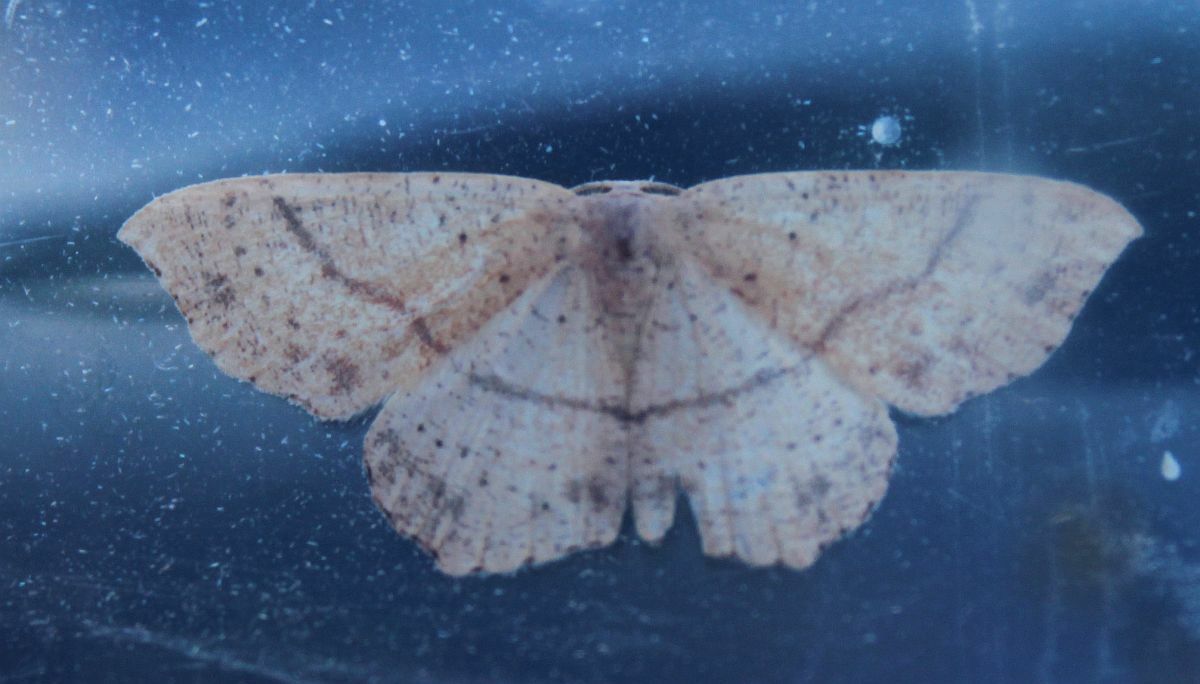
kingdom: Animalia
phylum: Arthropoda
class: Insecta
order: Lepidoptera
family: Geometridae
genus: Cyclophora
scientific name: Cyclophora punctaria
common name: Maiden's blush
